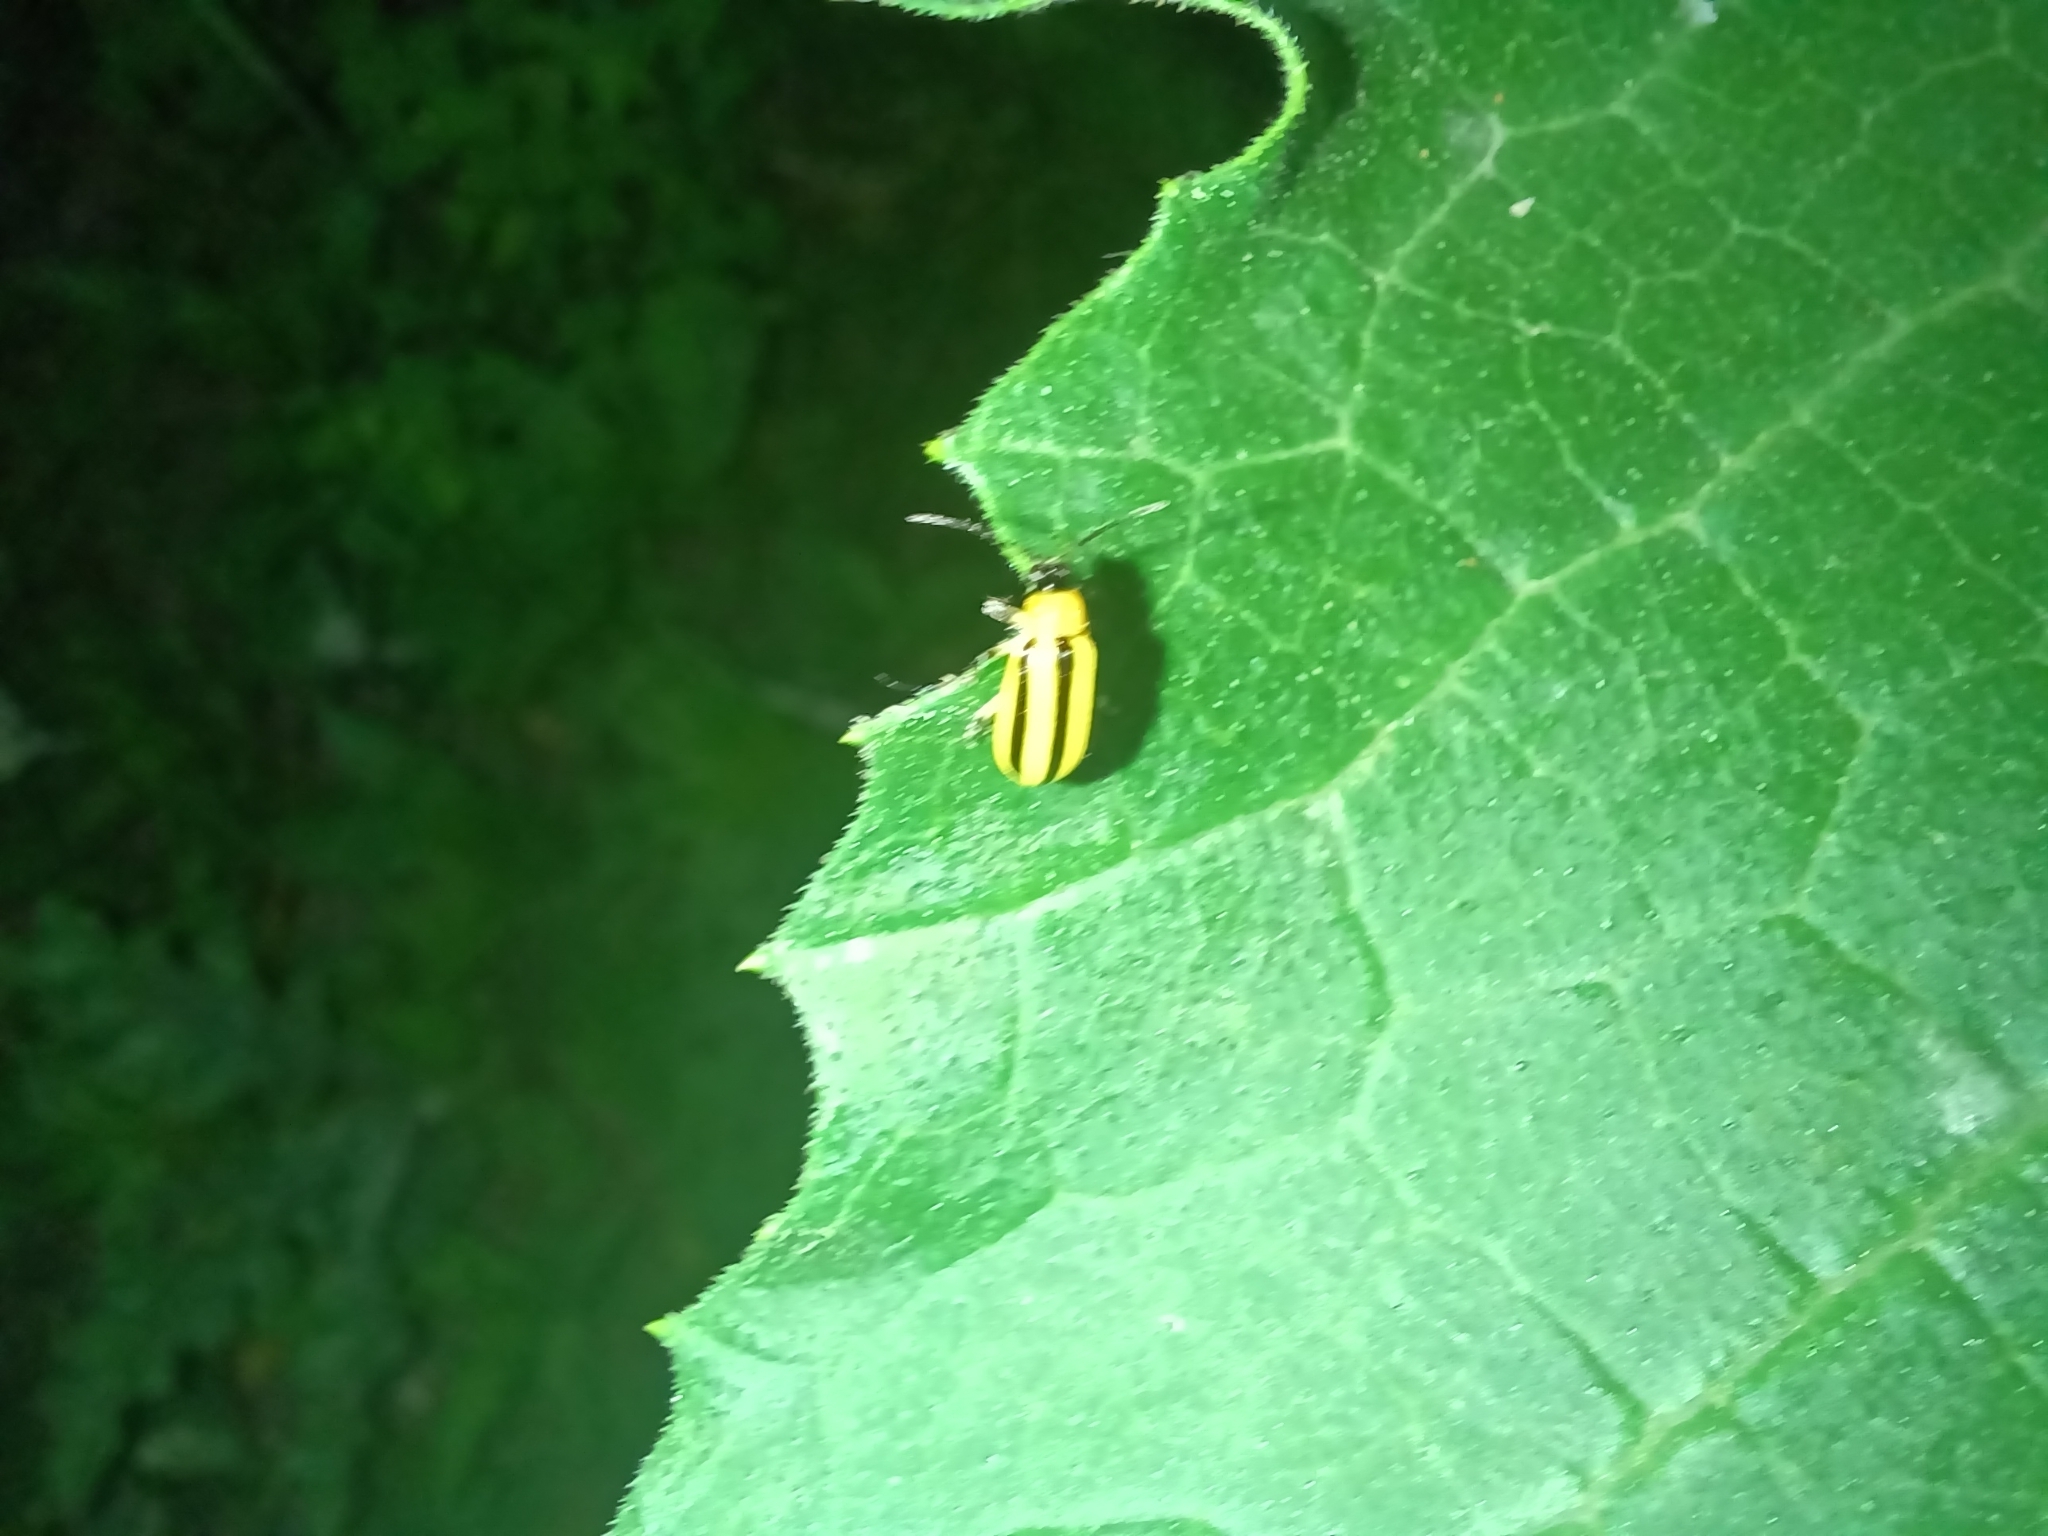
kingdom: Animalia
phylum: Arthropoda
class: Insecta
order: Coleoptera
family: Chrysomelidae
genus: Acalymma
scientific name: Acalymma vittatum
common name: Striped cucumber beetle
